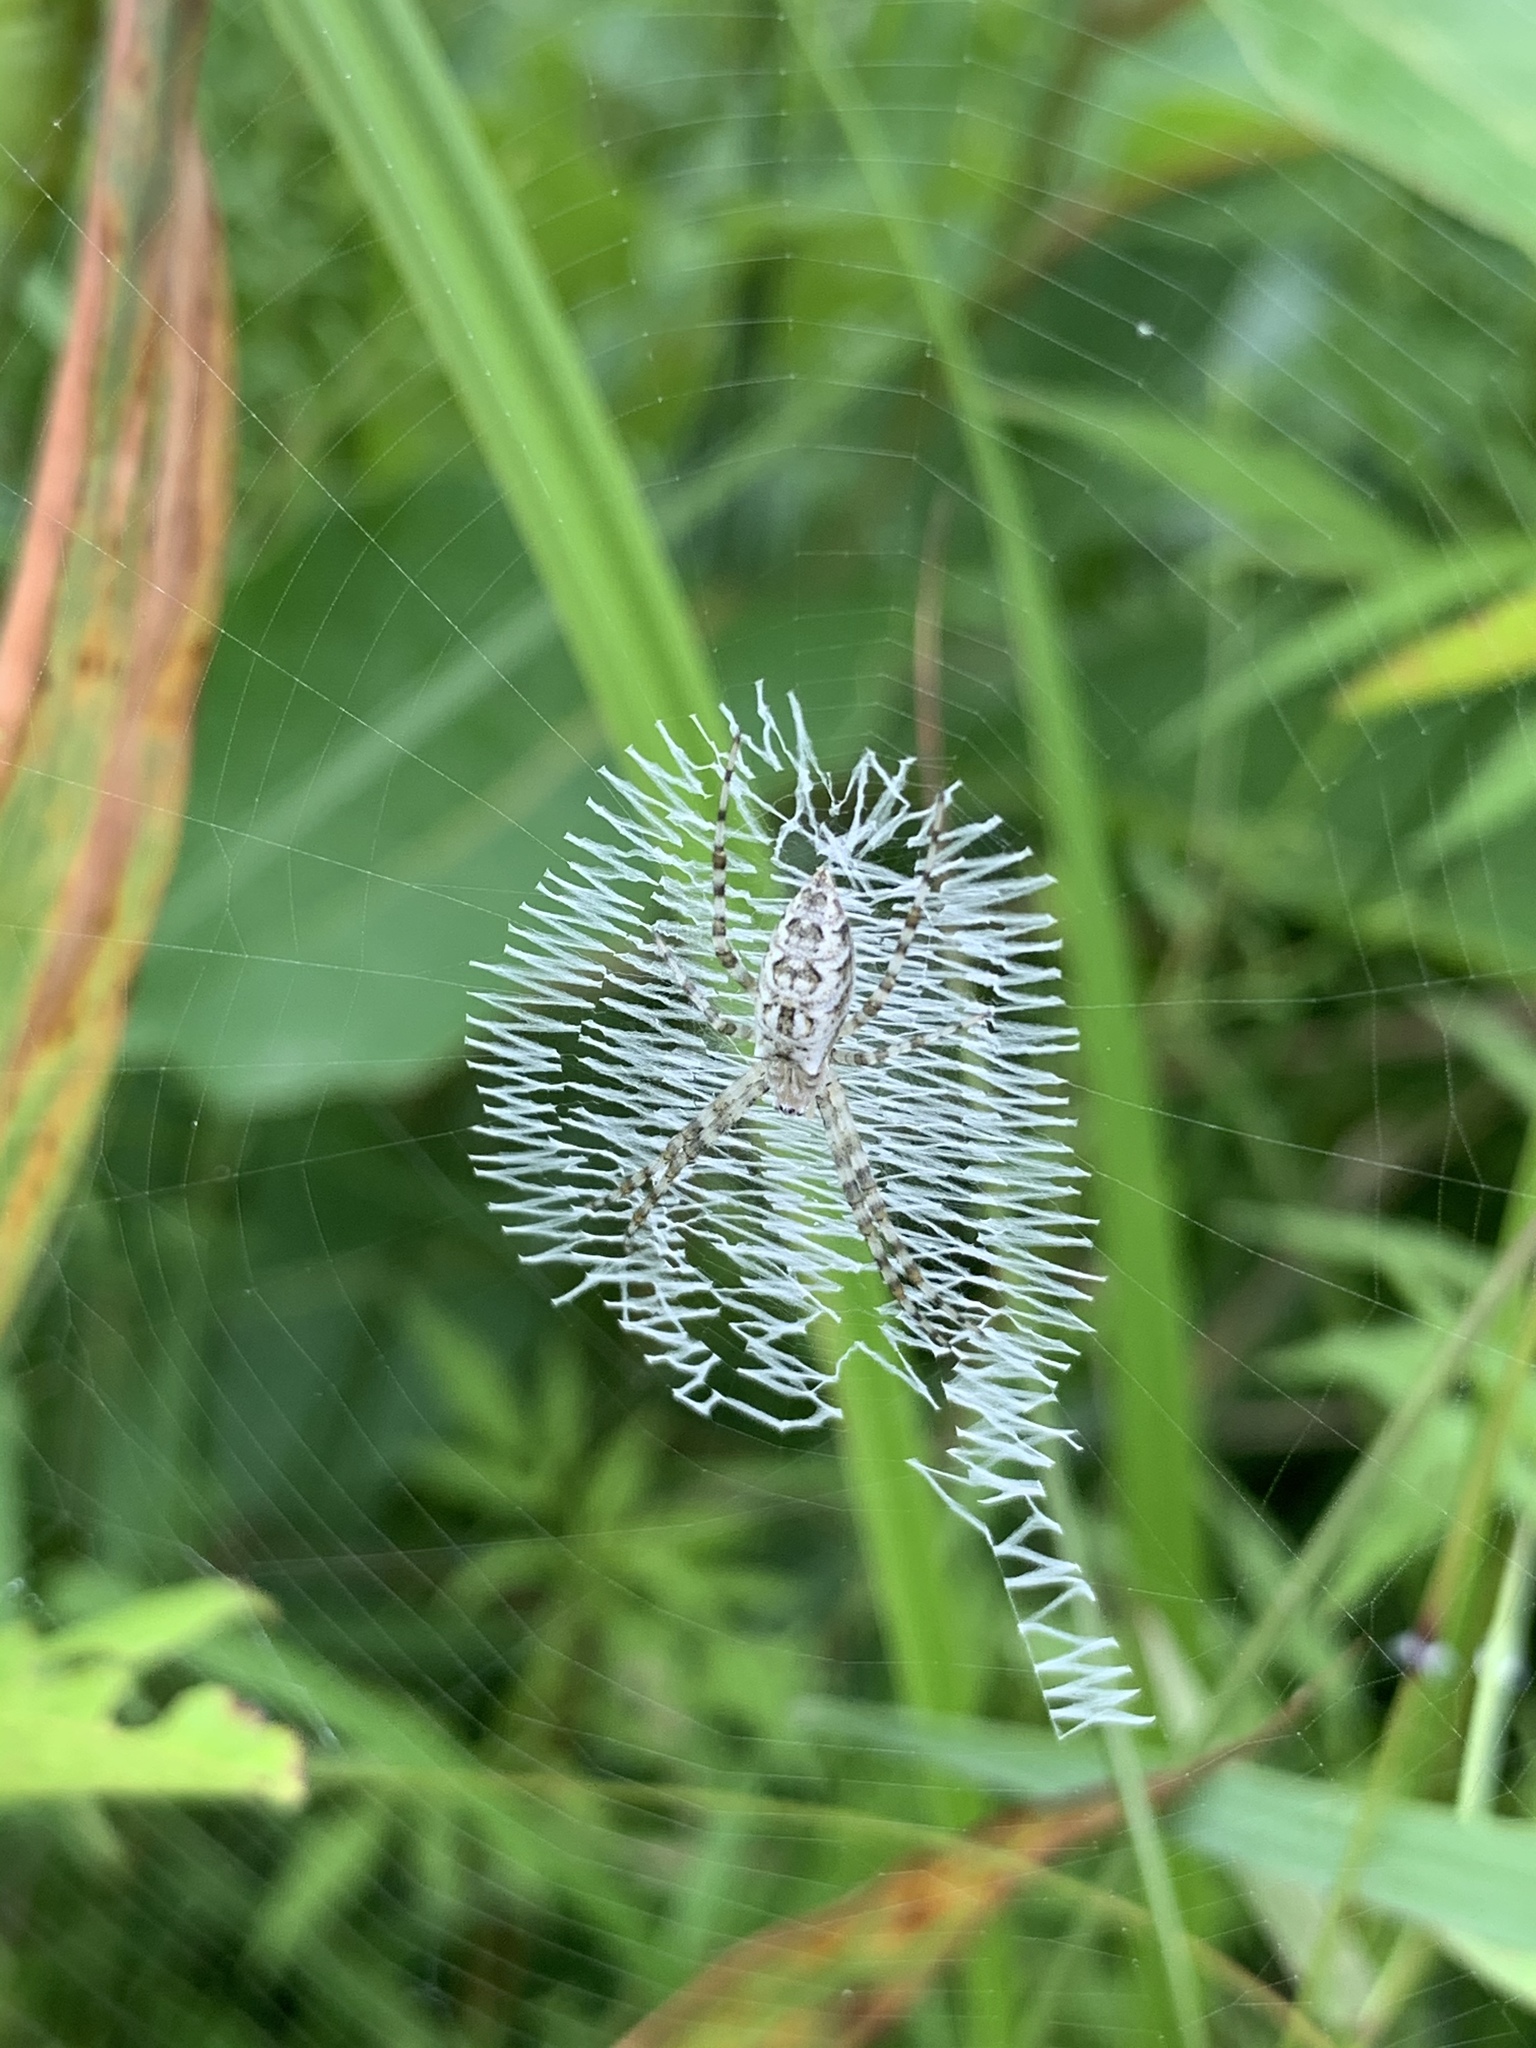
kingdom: Animalia
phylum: Arthropoda
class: Arachnida
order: Araneae
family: Araneidae
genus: Argiope
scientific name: Argiope aurantia
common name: Orb weavers
